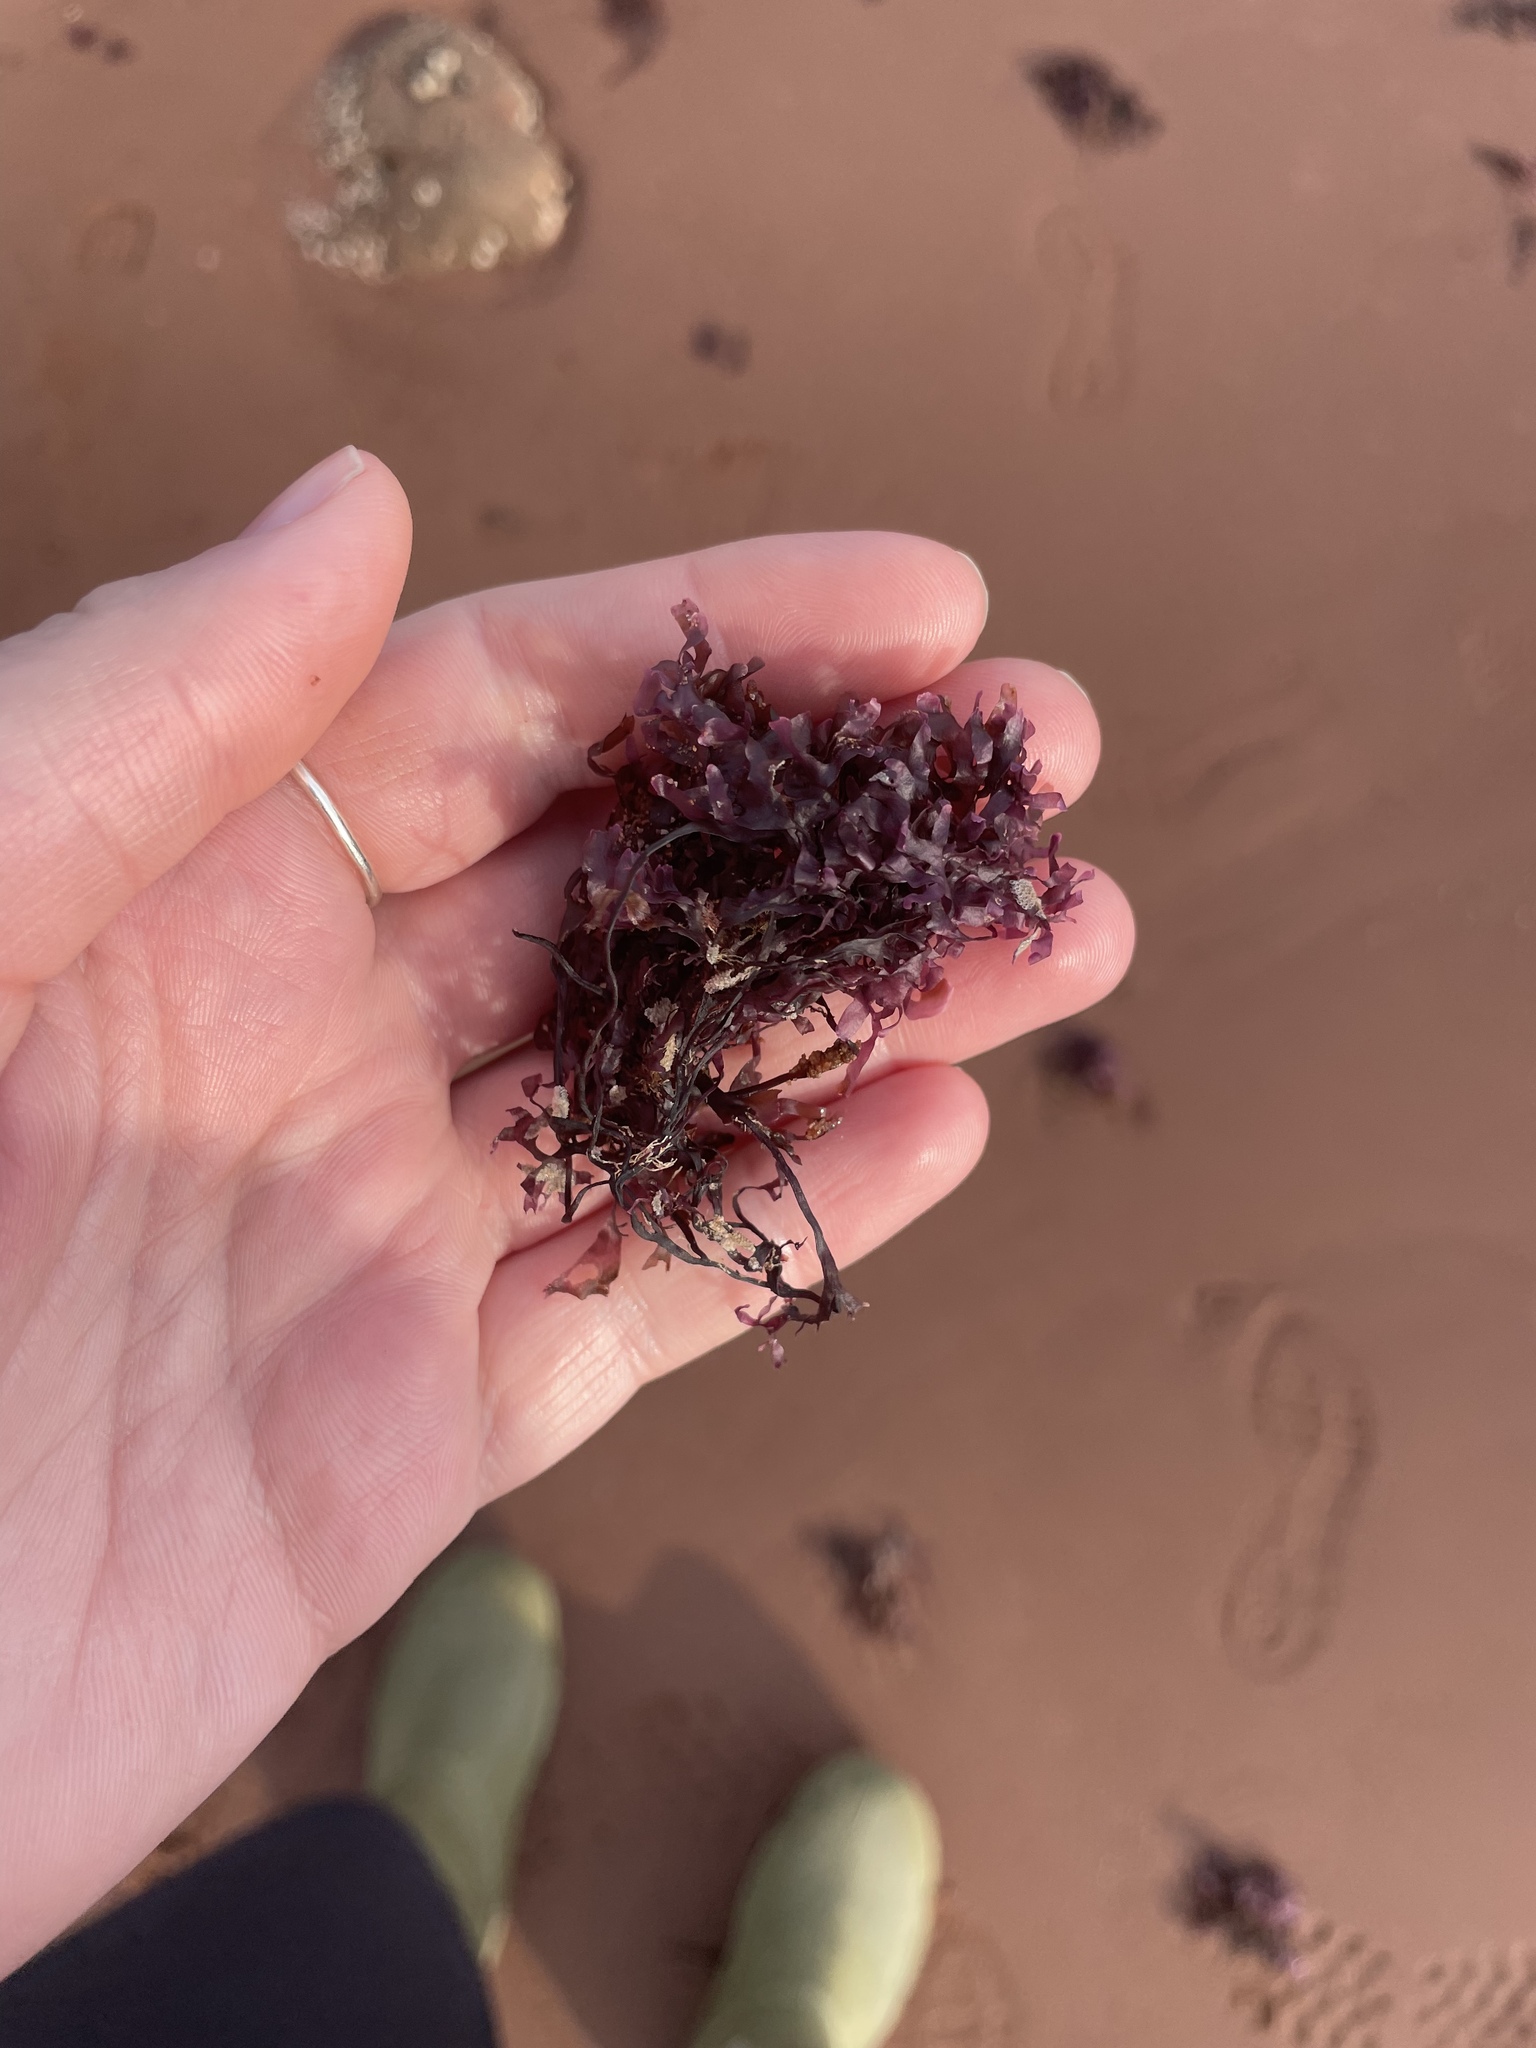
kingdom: Plantae
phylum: Rhodophyta
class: Florideophyceae
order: Gigartinales
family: Gigartinaceae
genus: Chondrus
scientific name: Chondrus crispus
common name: Carrageen
